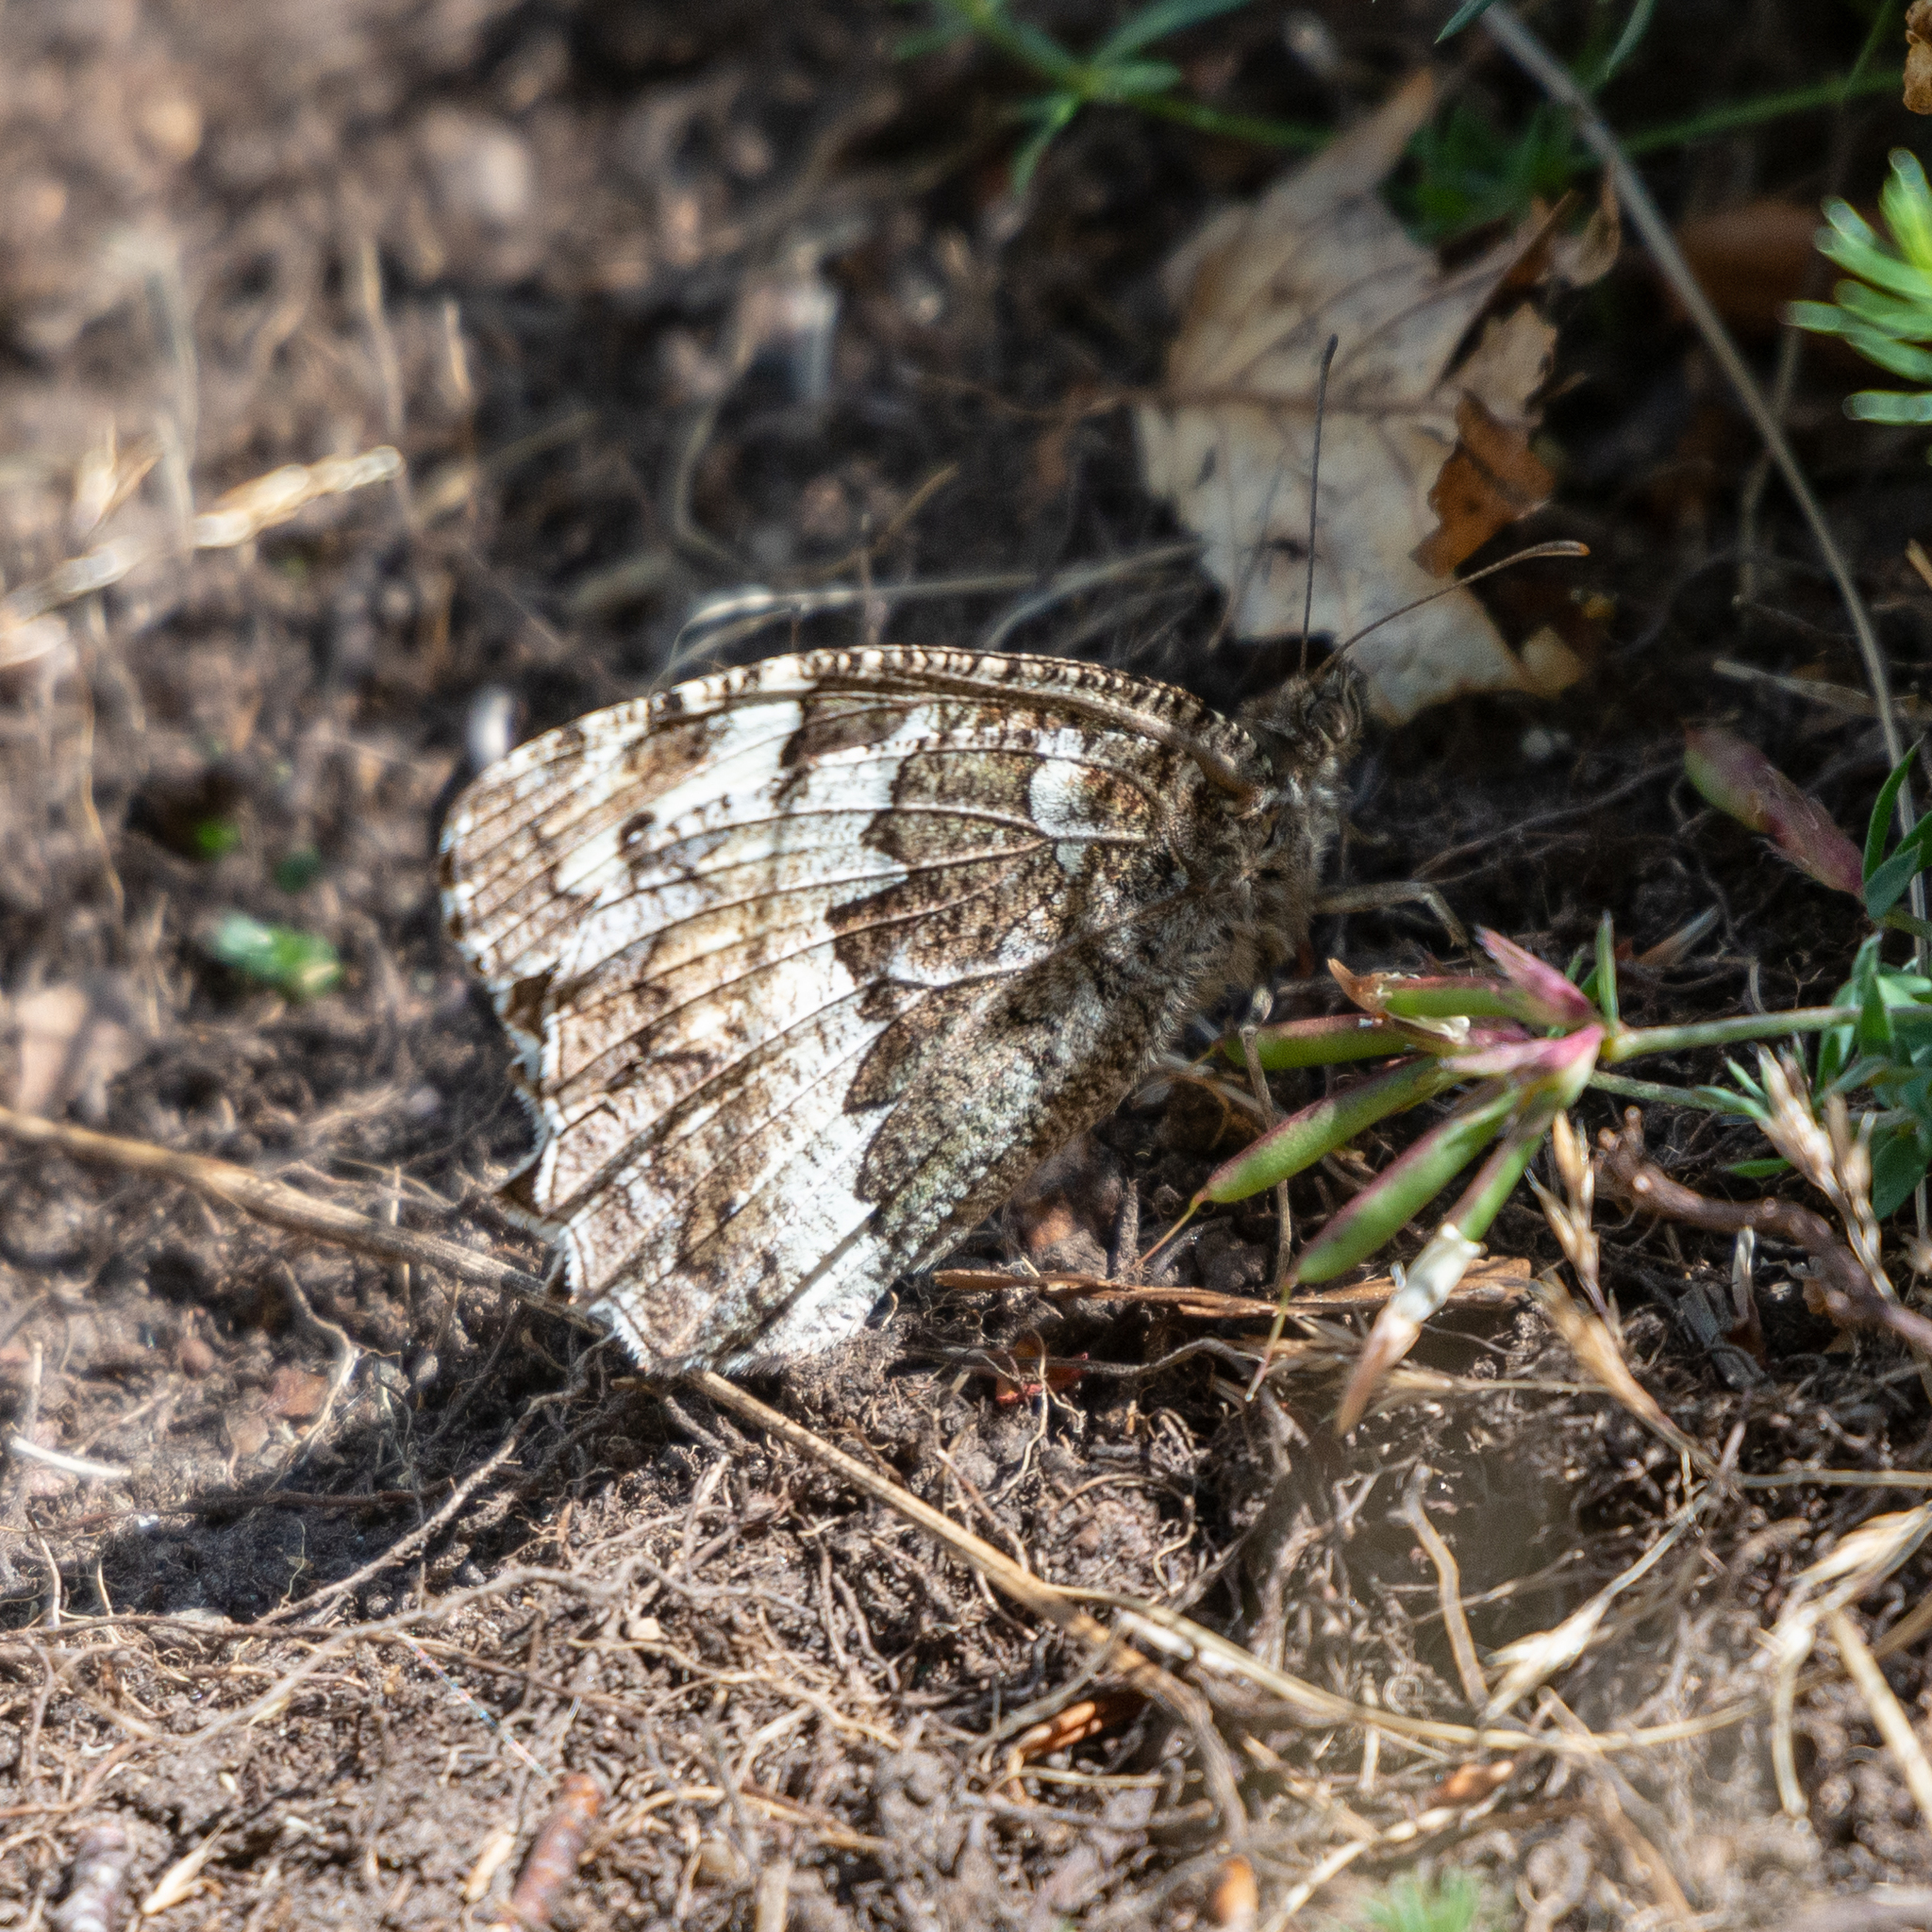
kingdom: Animalia
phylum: Arthropoda
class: Insecta
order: Lepidoptera
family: Lycaenidae
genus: Loweia
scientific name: Loweia tityrus
